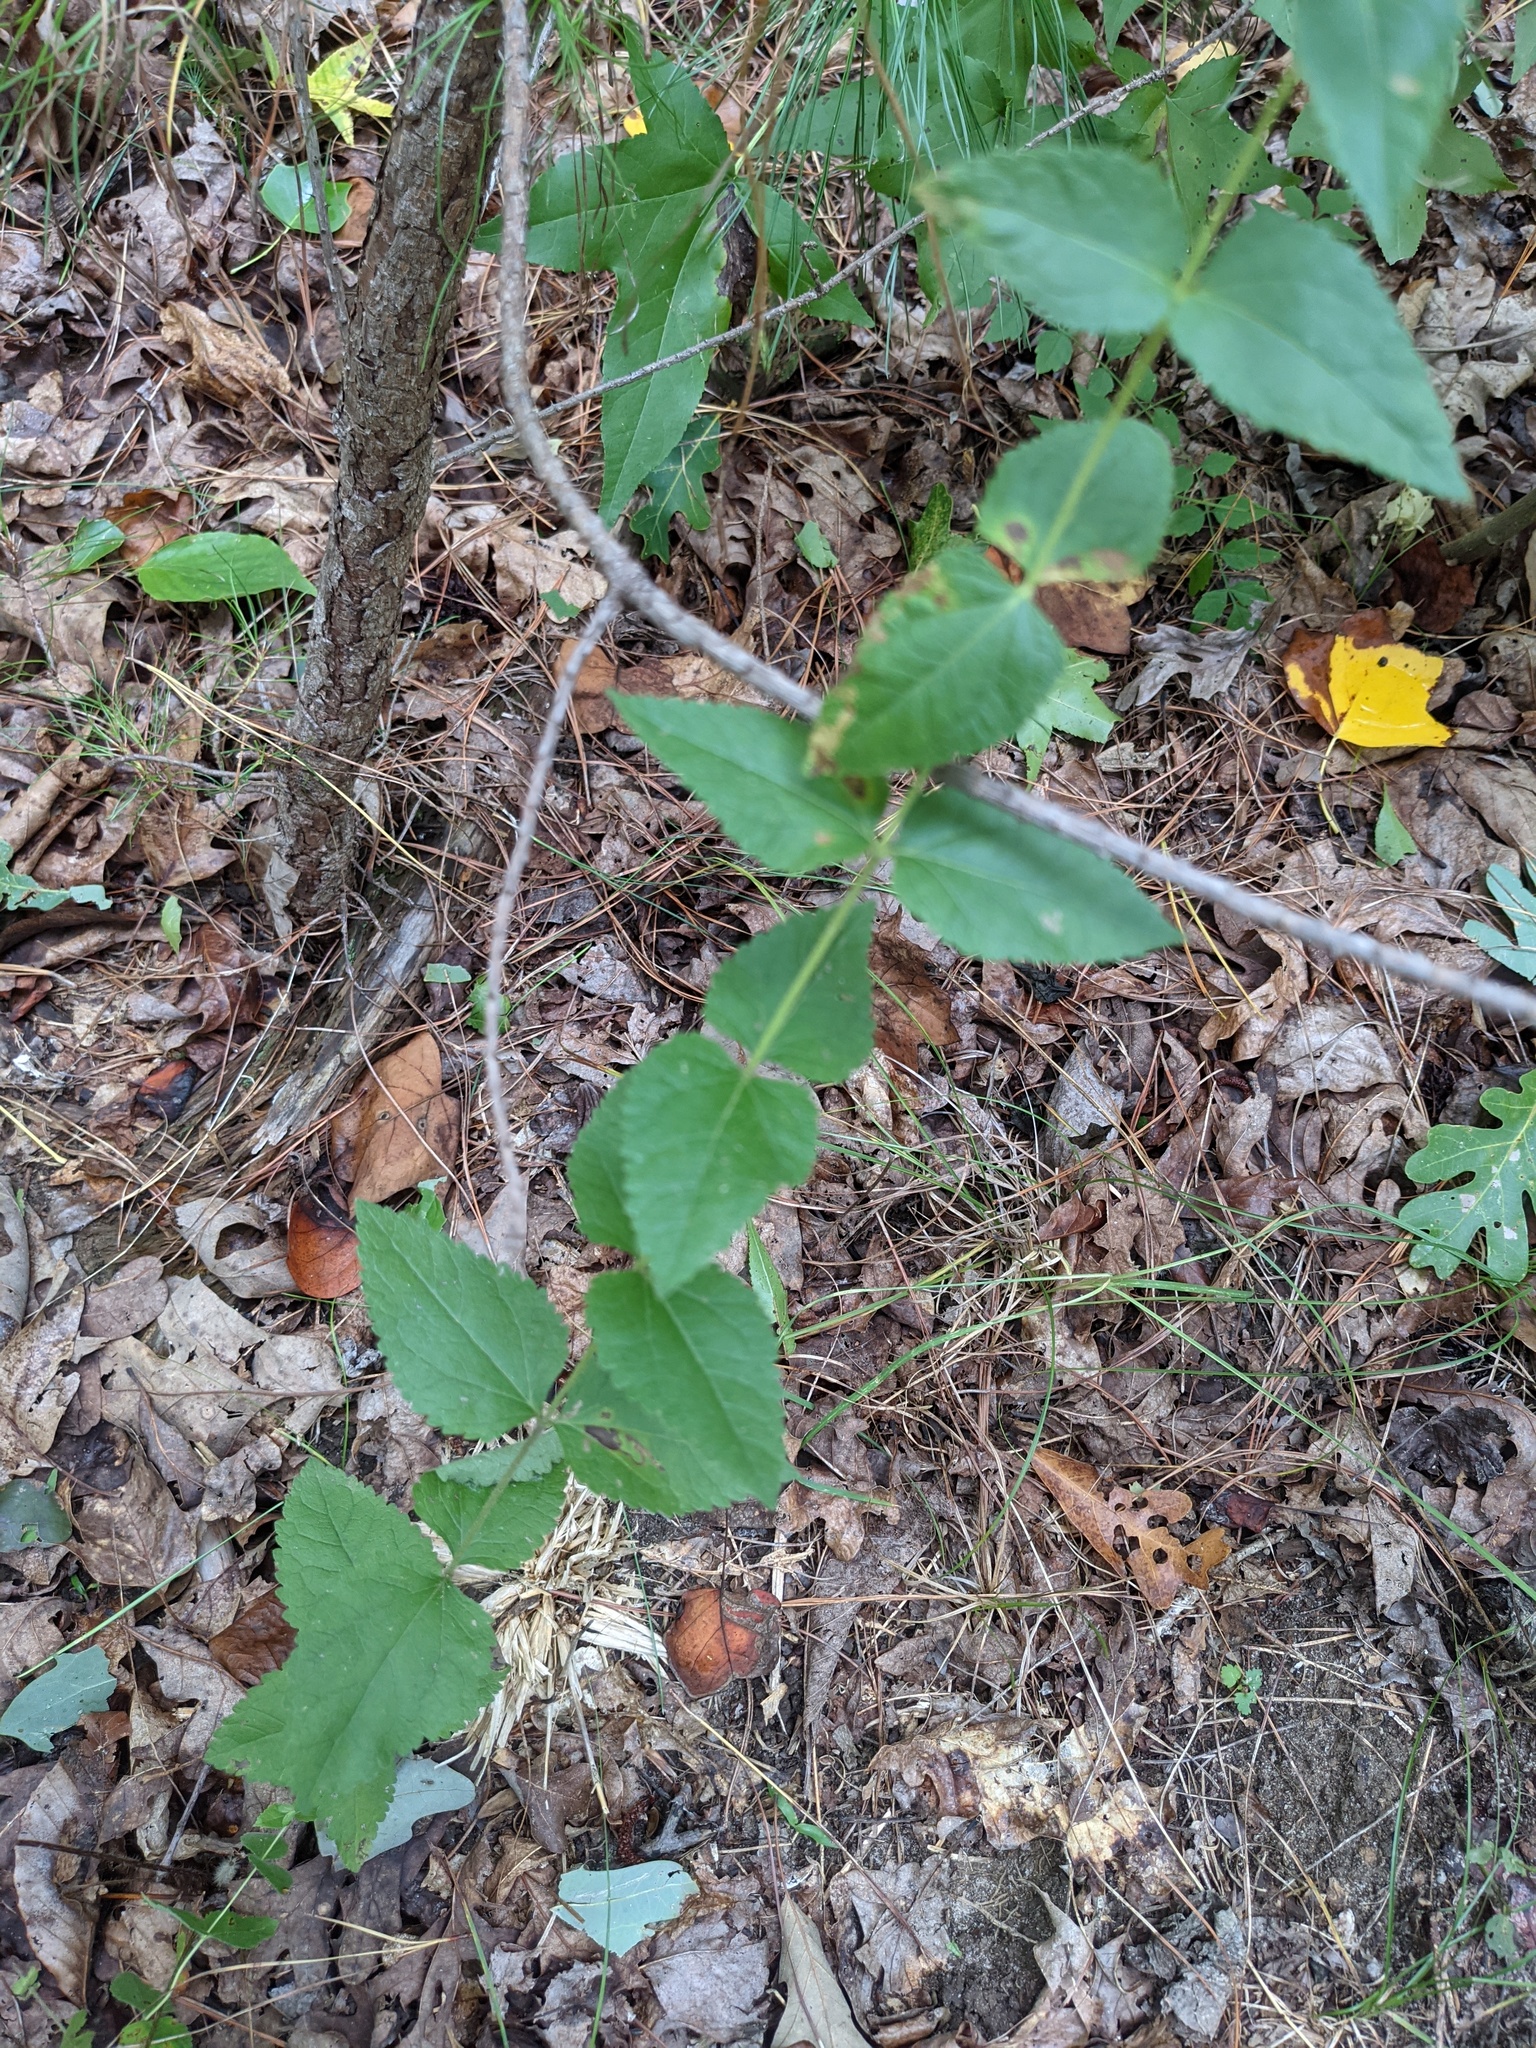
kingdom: Plantae
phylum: Tracheophyta
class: Magnoliopsida
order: Asterales
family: Asteraceae
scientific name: Asteraceae
